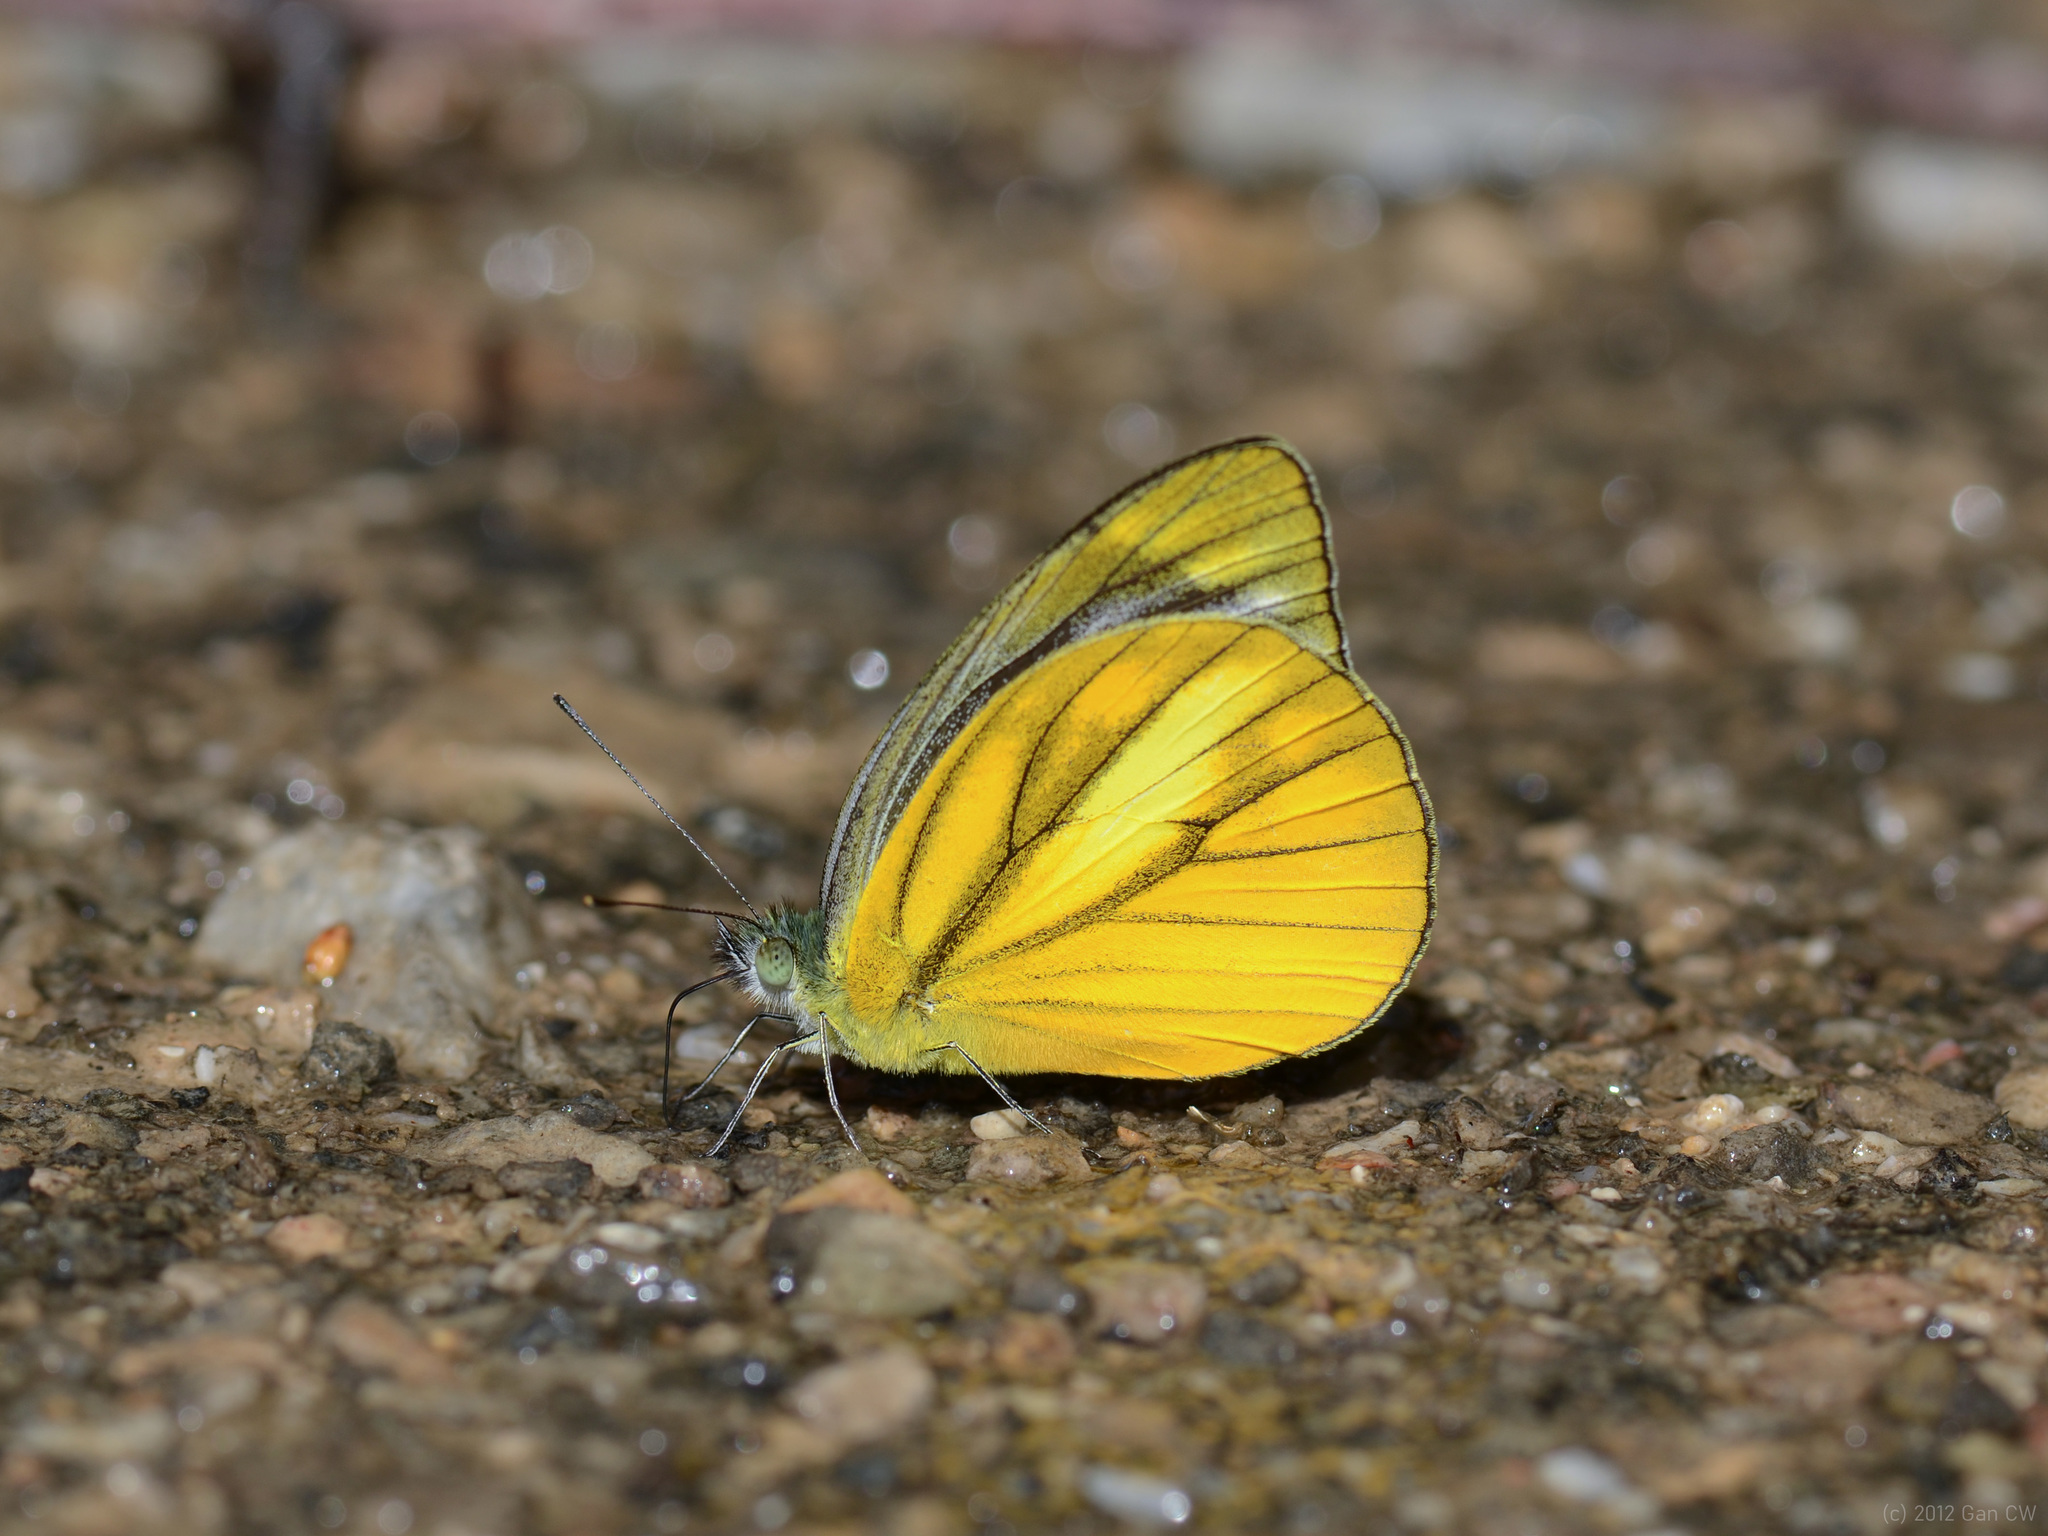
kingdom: Animalia
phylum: Arthropoda
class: Insecta
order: Lepidoptera
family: Pieridae
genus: Cepora
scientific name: Cepora nadina
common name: Lesser gull
